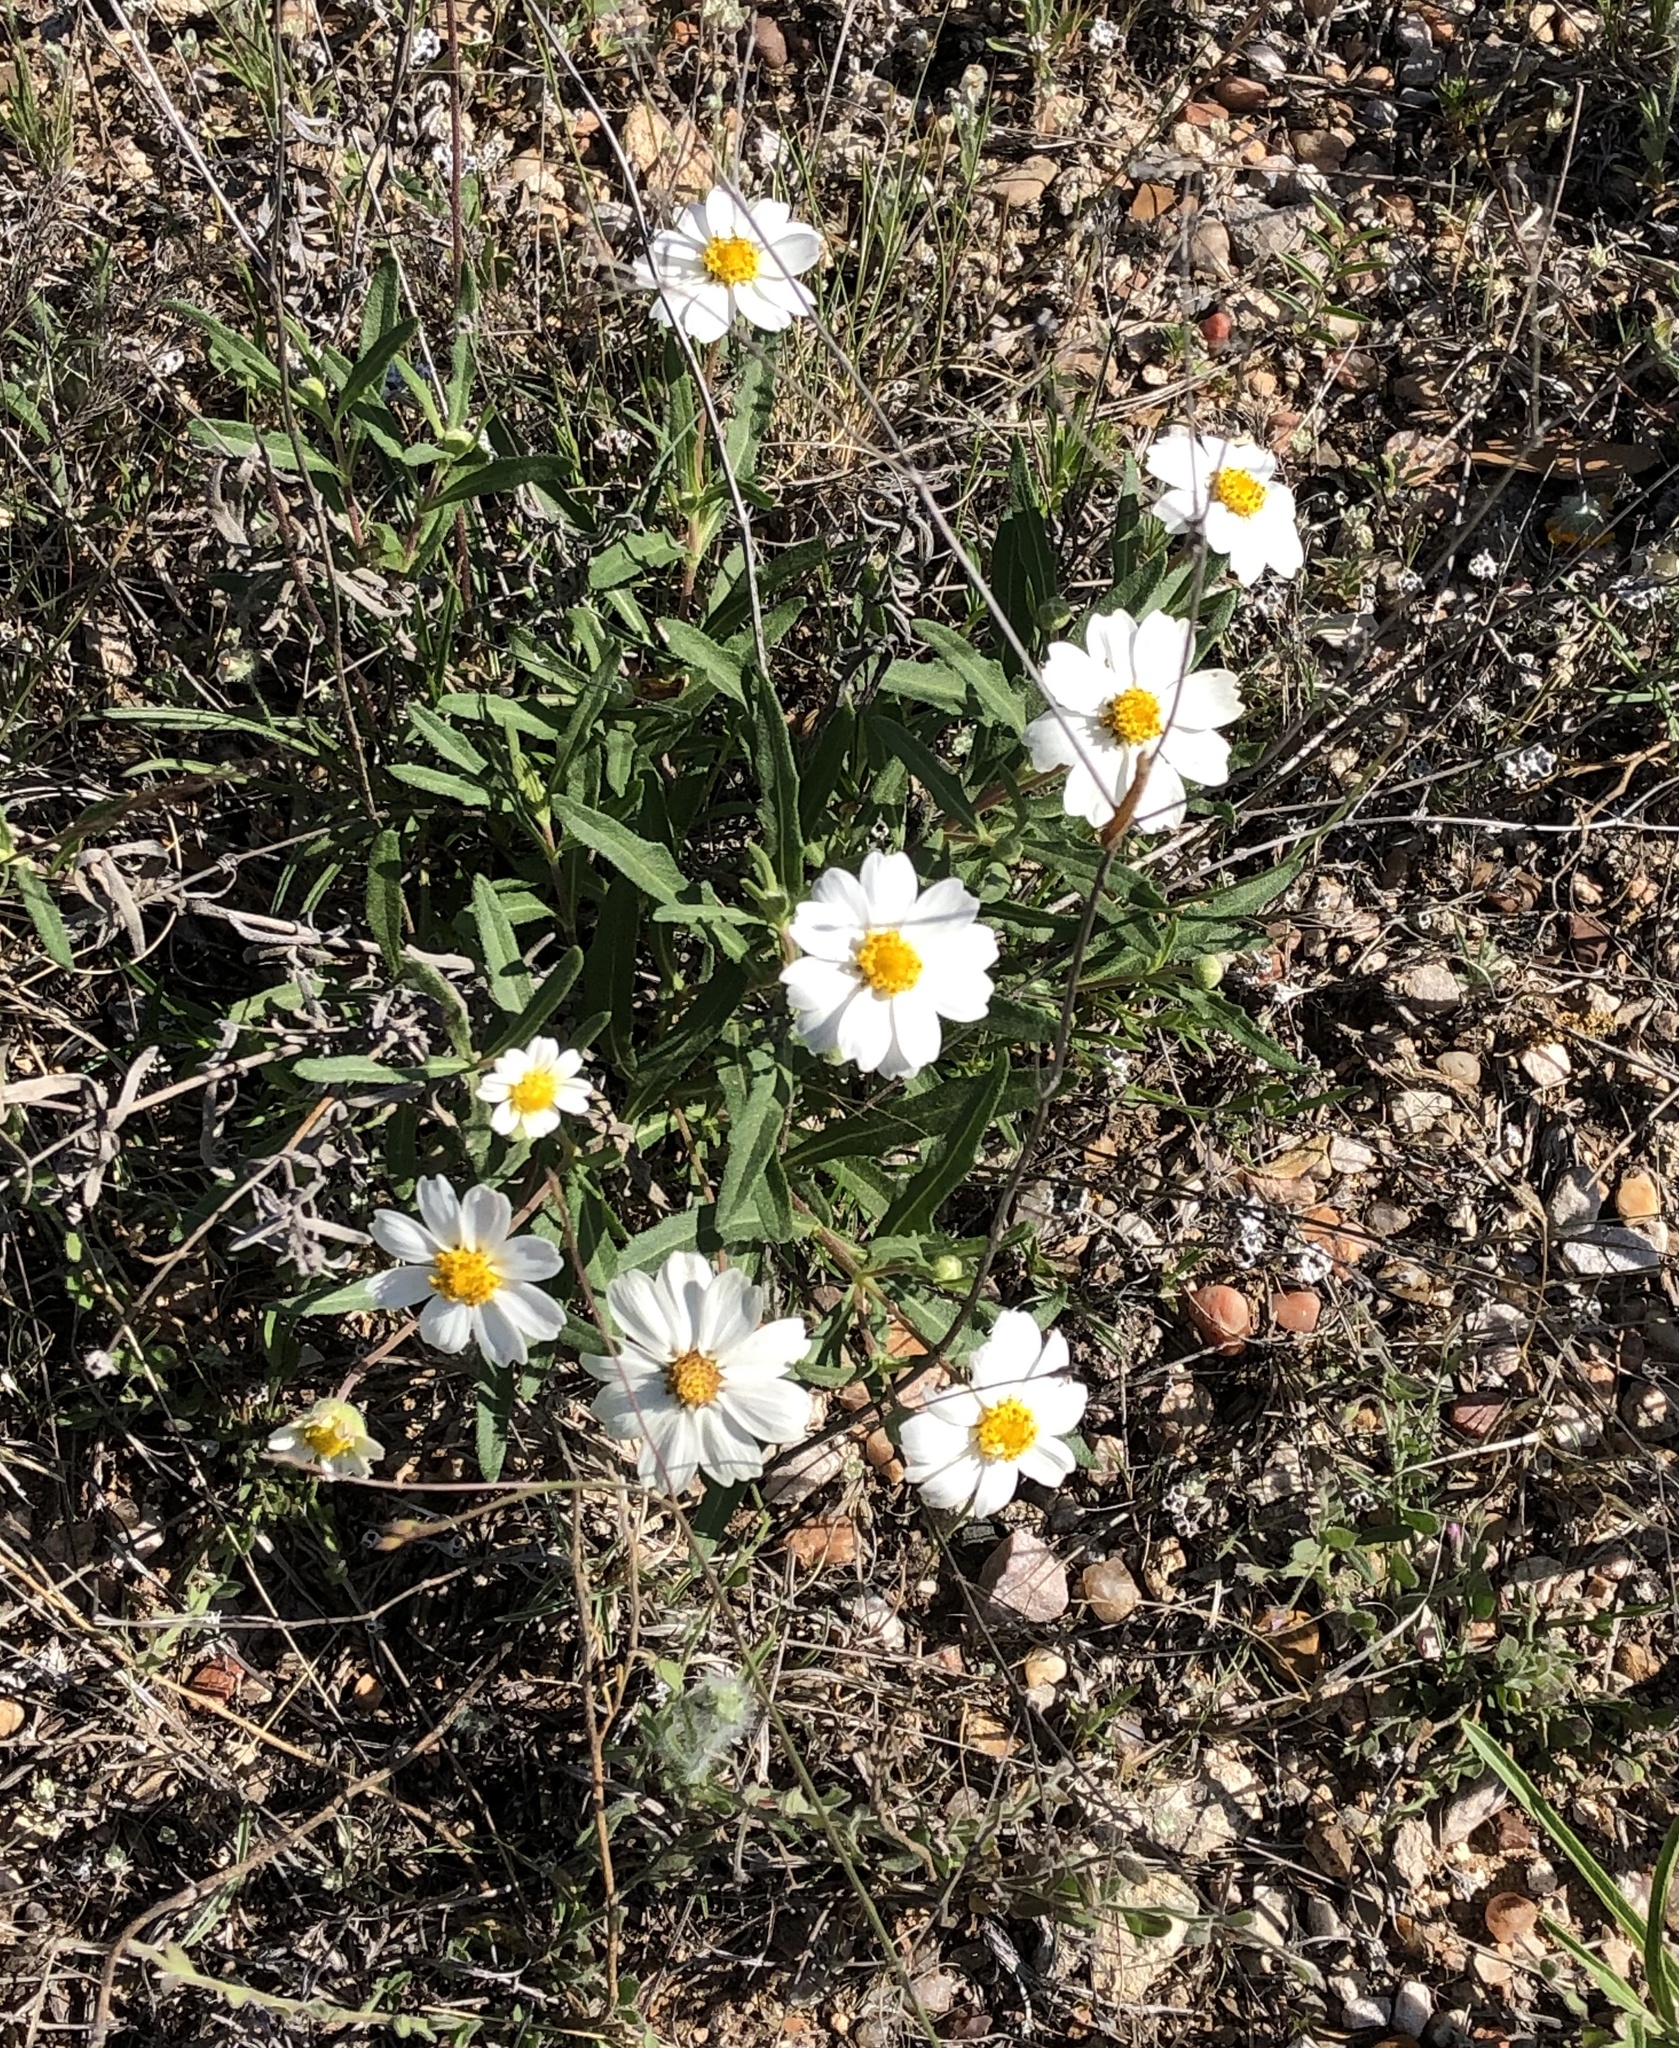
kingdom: Plantae
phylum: Tracheophyta
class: Magnoliopsida
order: Asterales
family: Asteraceae
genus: Melampodium
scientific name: Melampodium leucanthum
